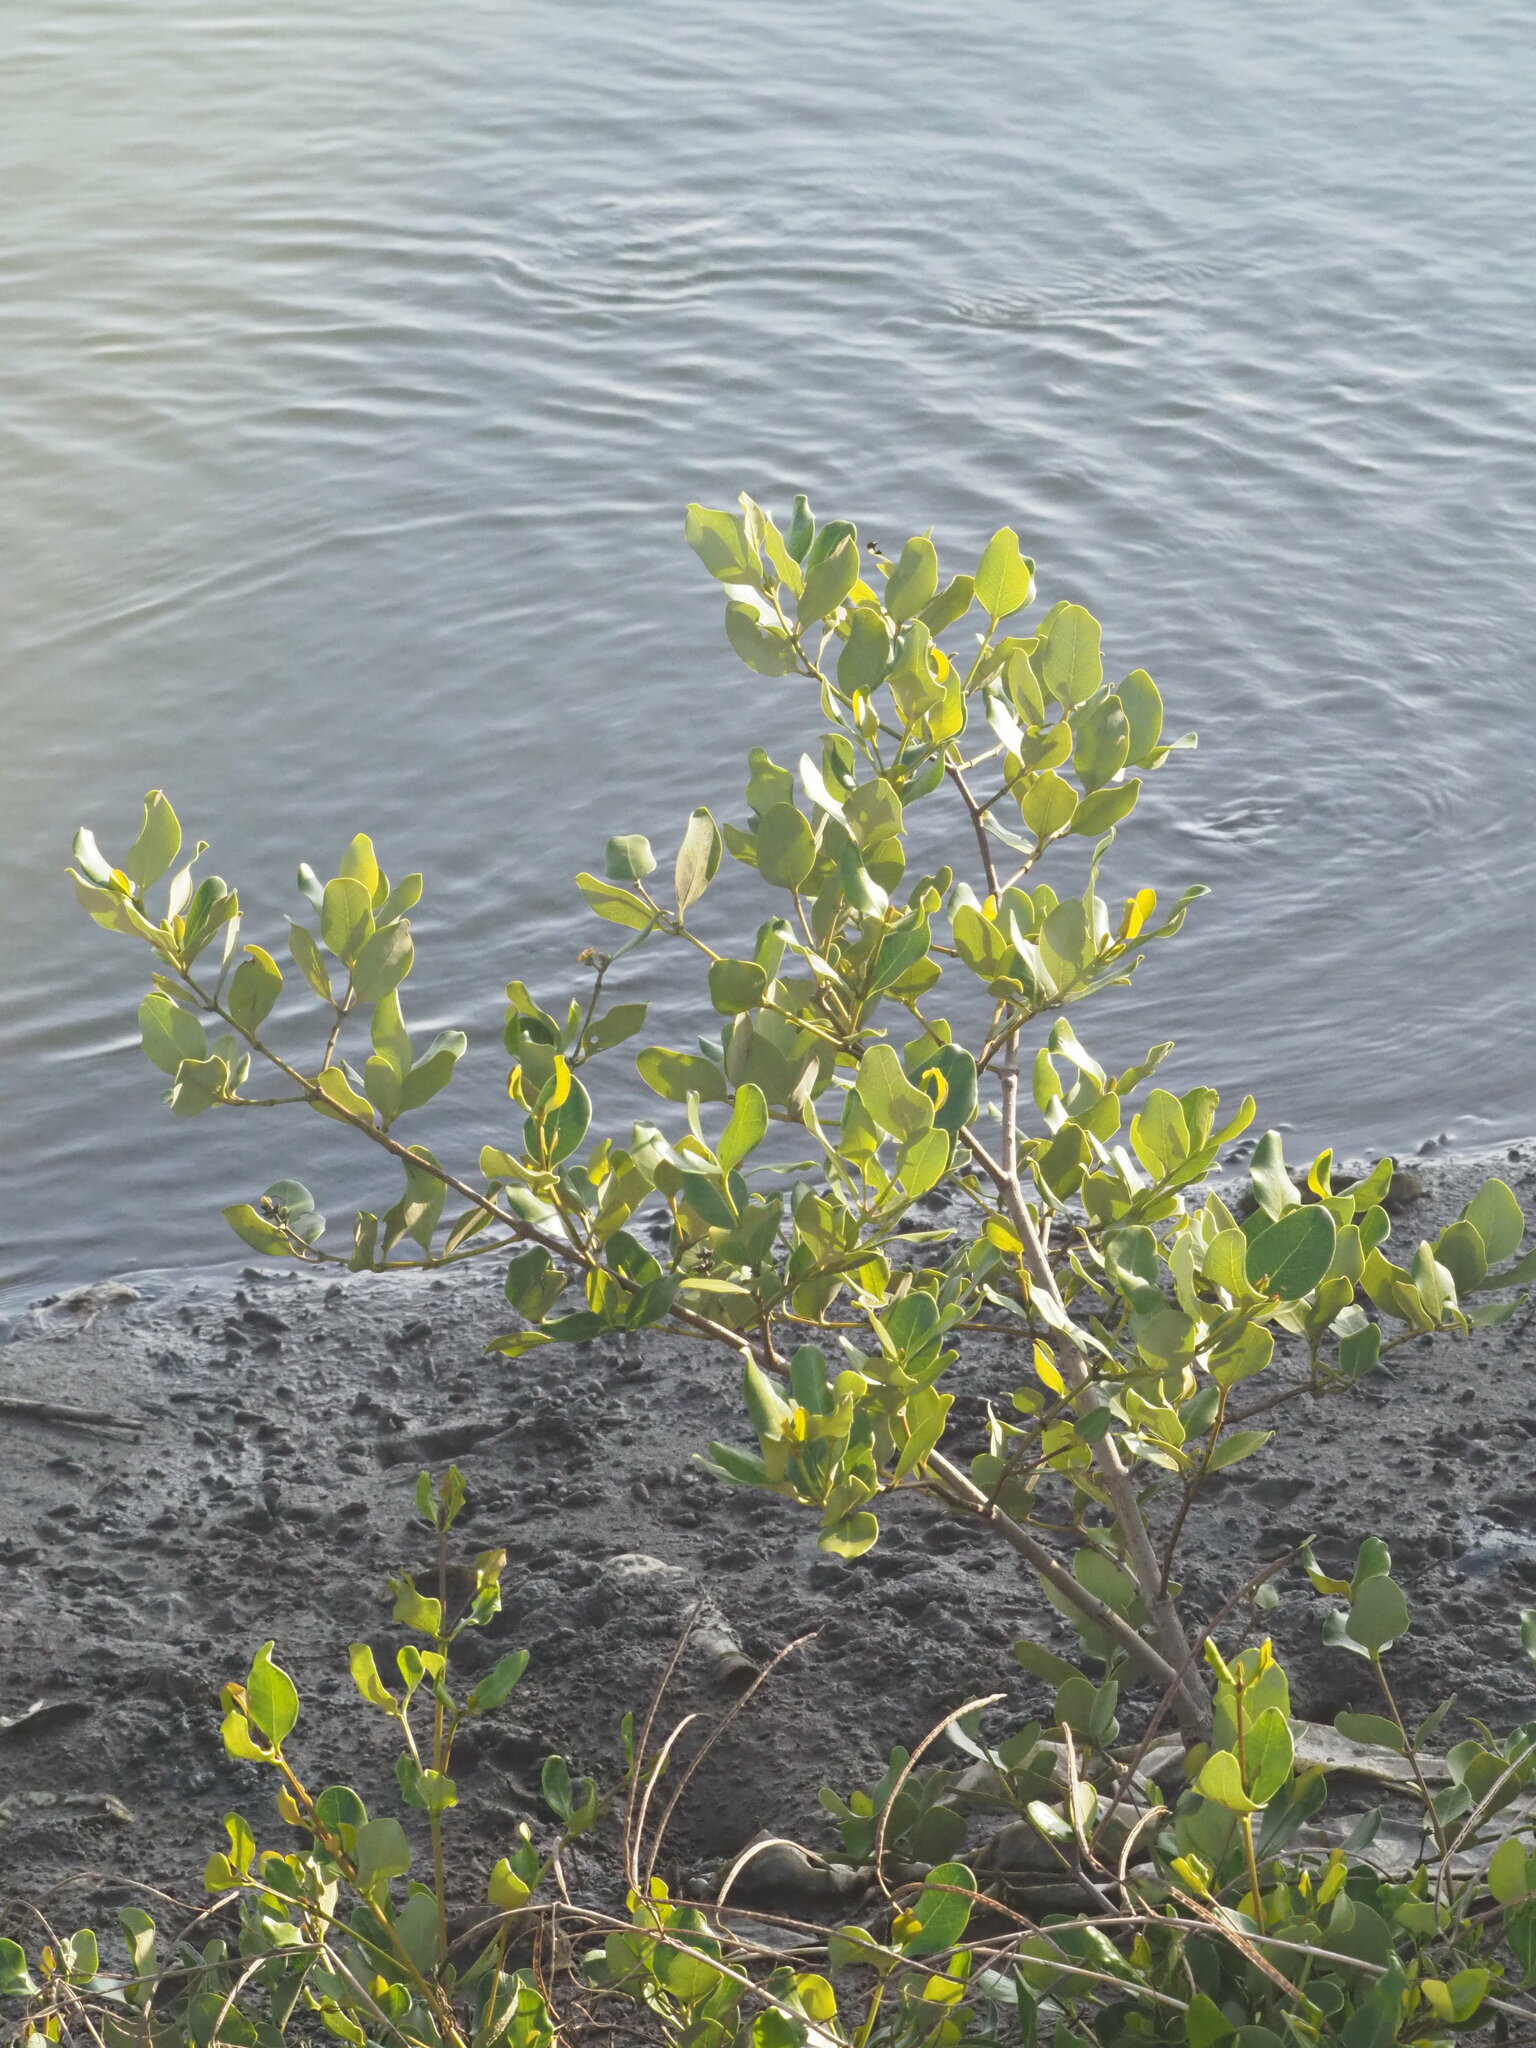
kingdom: Plantae
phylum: Tracheophyta
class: Magnoliopsida
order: Lamiales
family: Acanthaceae
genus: Avicennia
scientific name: Avicennia marina
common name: Gray mangrove
